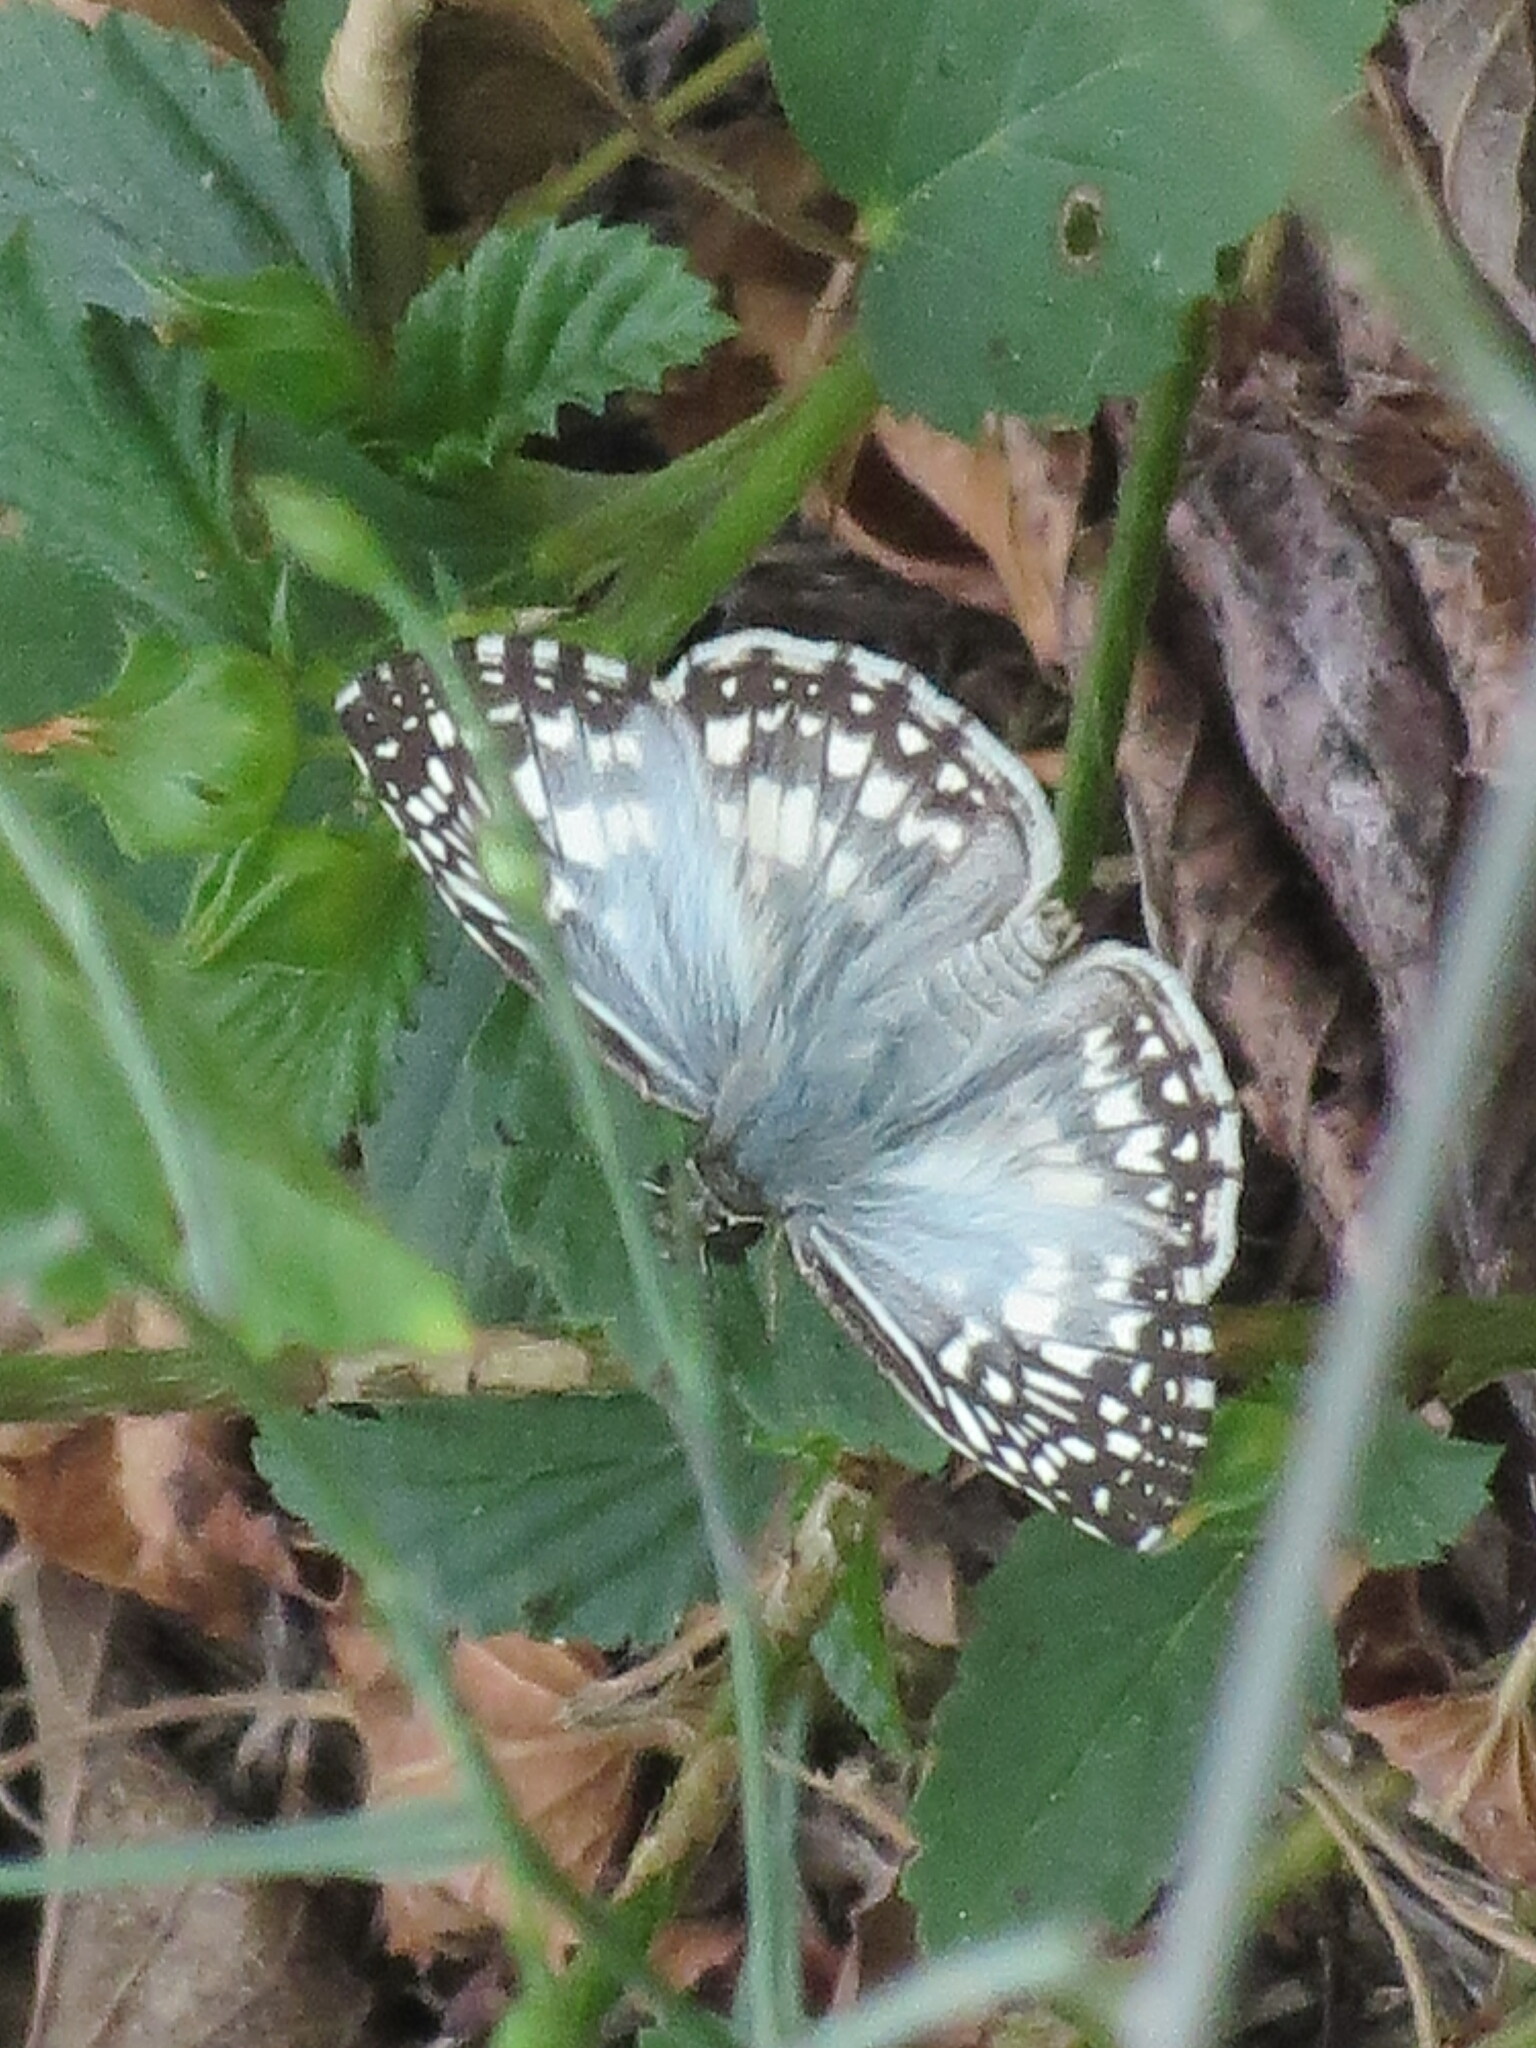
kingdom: Animalia
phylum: Arthropoda
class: Insecta
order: Lepidoptera
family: Hesperiidae
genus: Pyrgus
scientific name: Pyrgus oileus
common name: Tropical checkered-skipper
